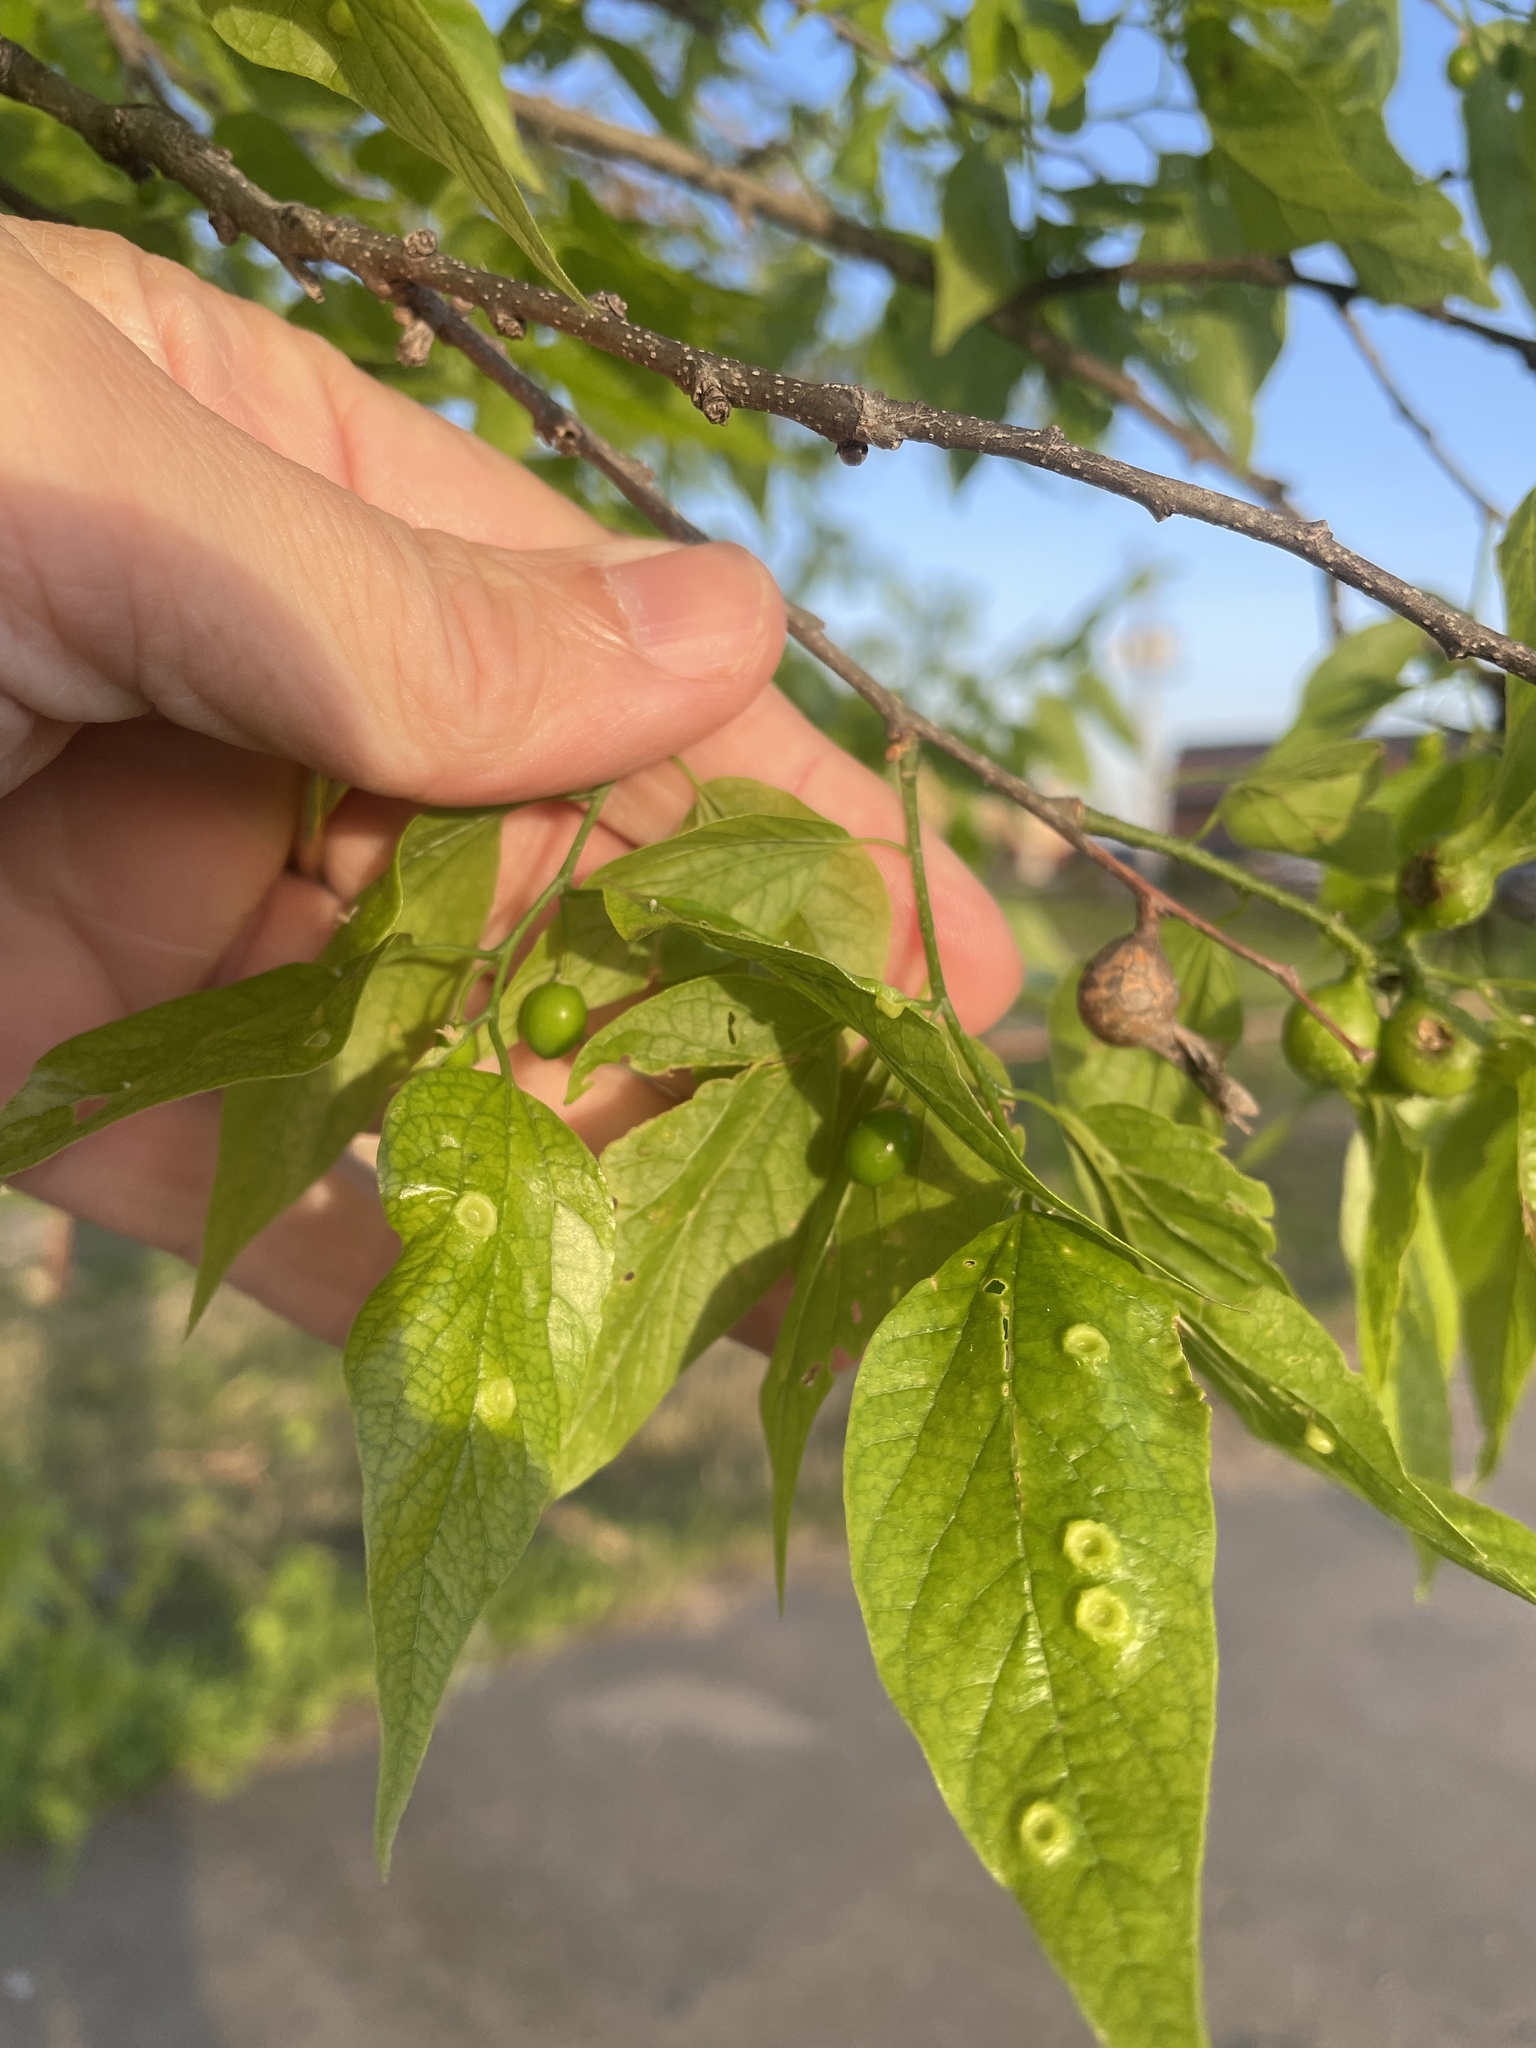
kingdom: Plantae
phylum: Tracheophyta
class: Magnoliopsida
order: Rosales
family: Cannabaceae
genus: Celtis
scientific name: Celtis laevigata
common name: Sugarberry
